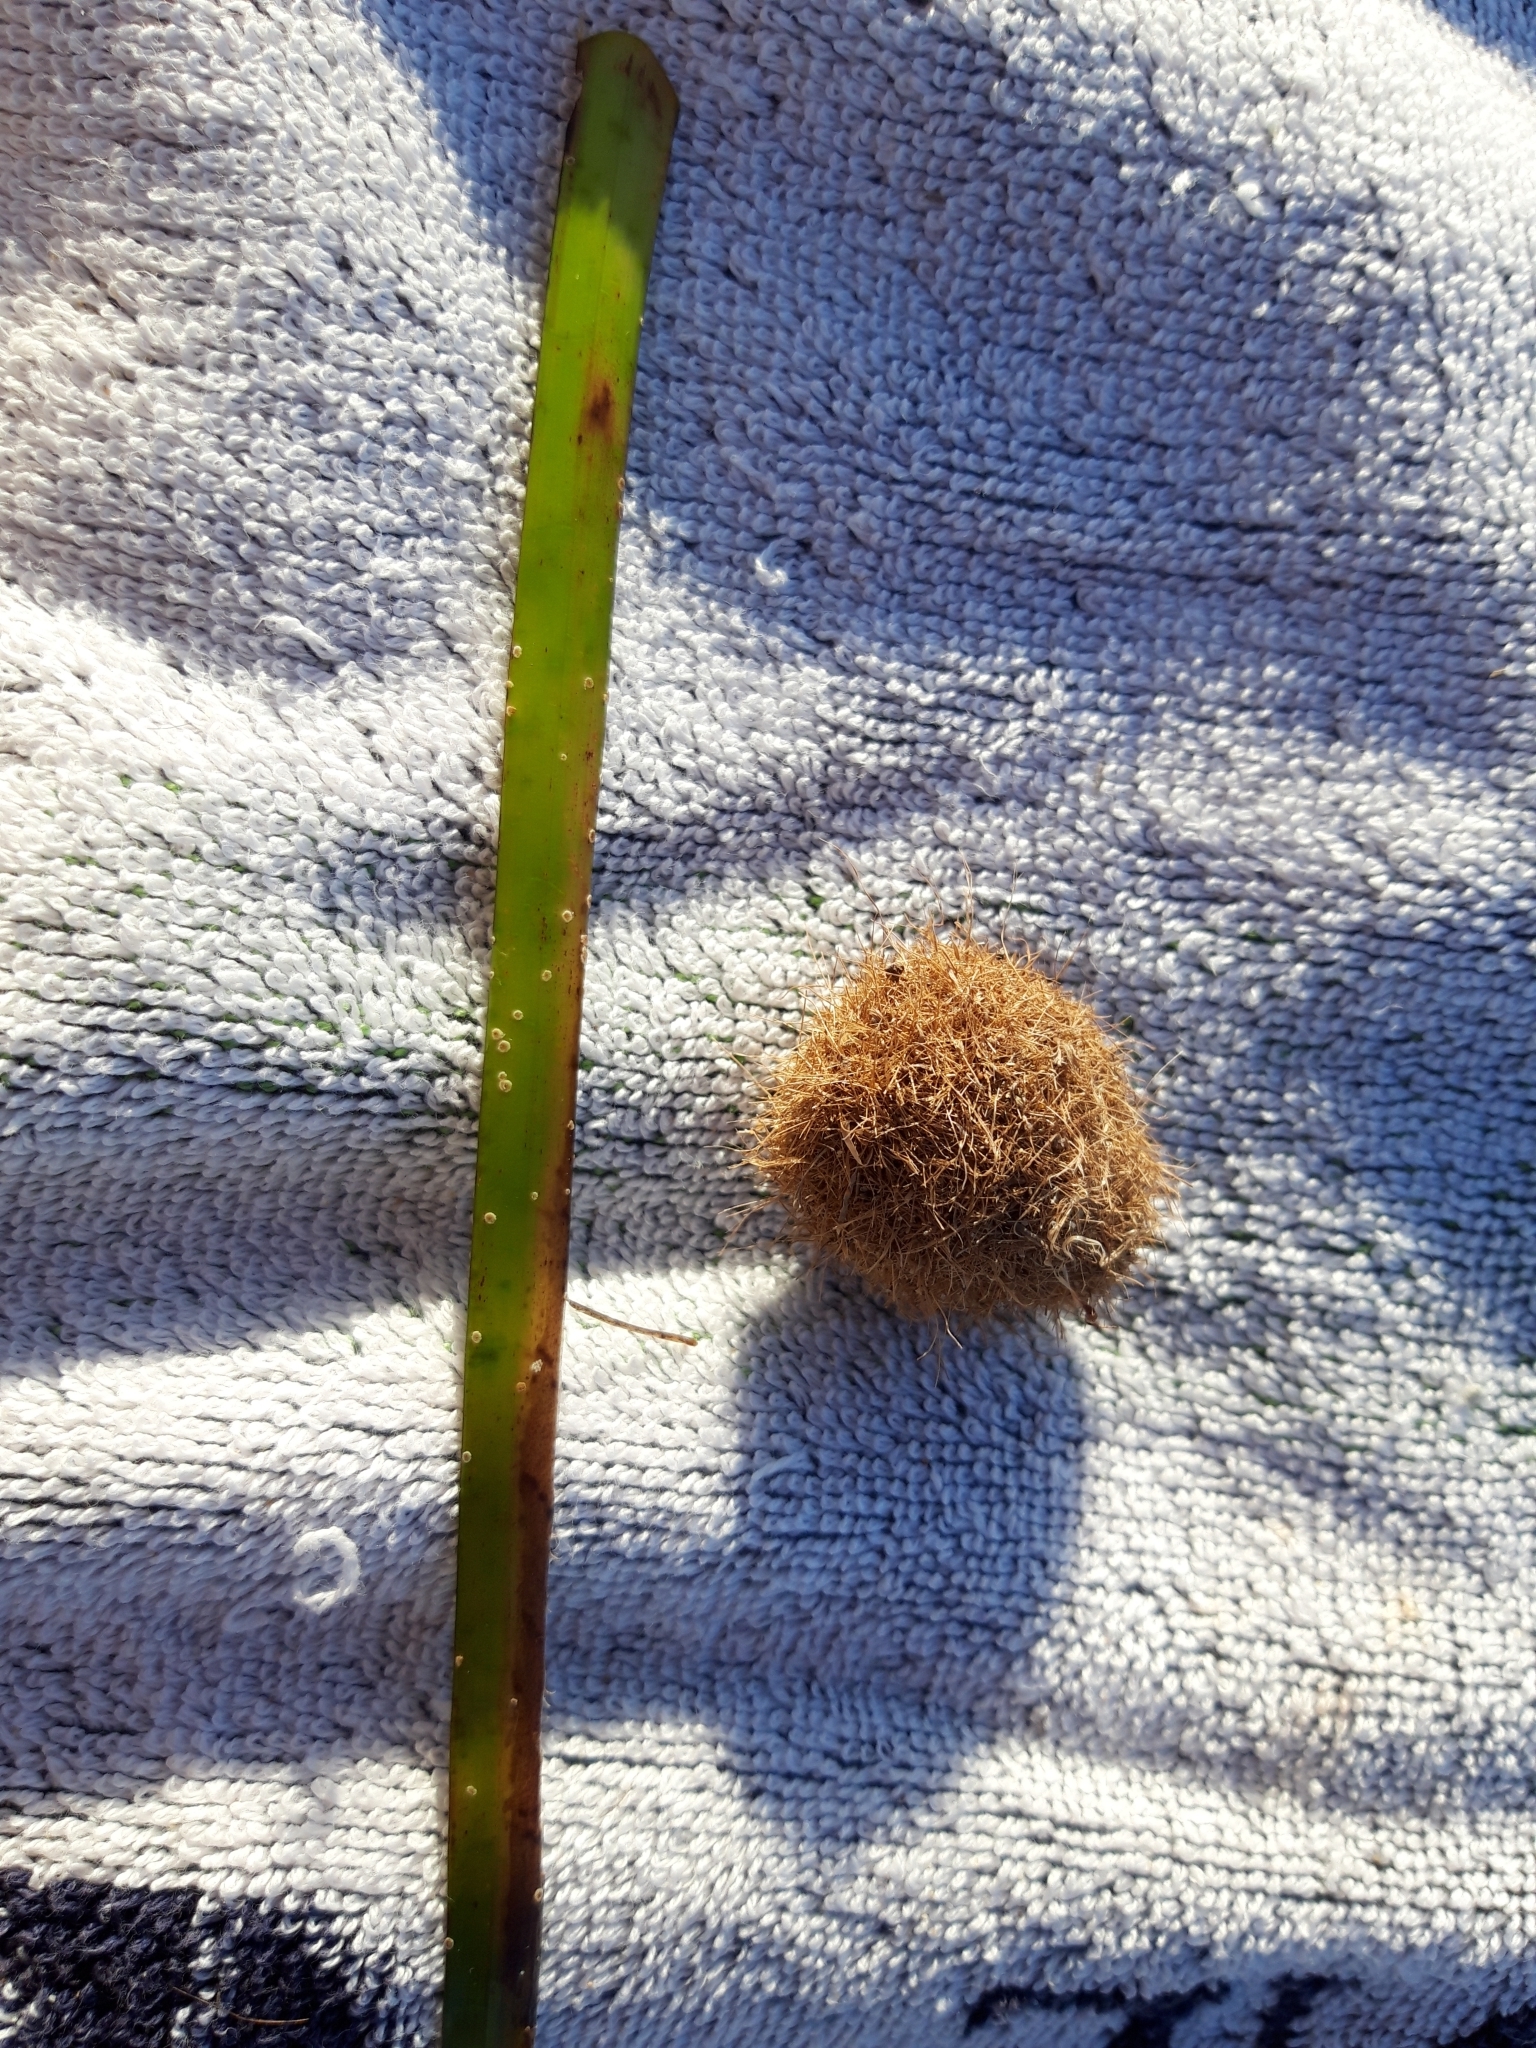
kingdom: Plantae
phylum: Tracheophyta
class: Liliopsida
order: Alismatales
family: Posidoniaceae
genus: Posidonia
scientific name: Posidonia oceanica
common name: Mediterranean tapeweed
